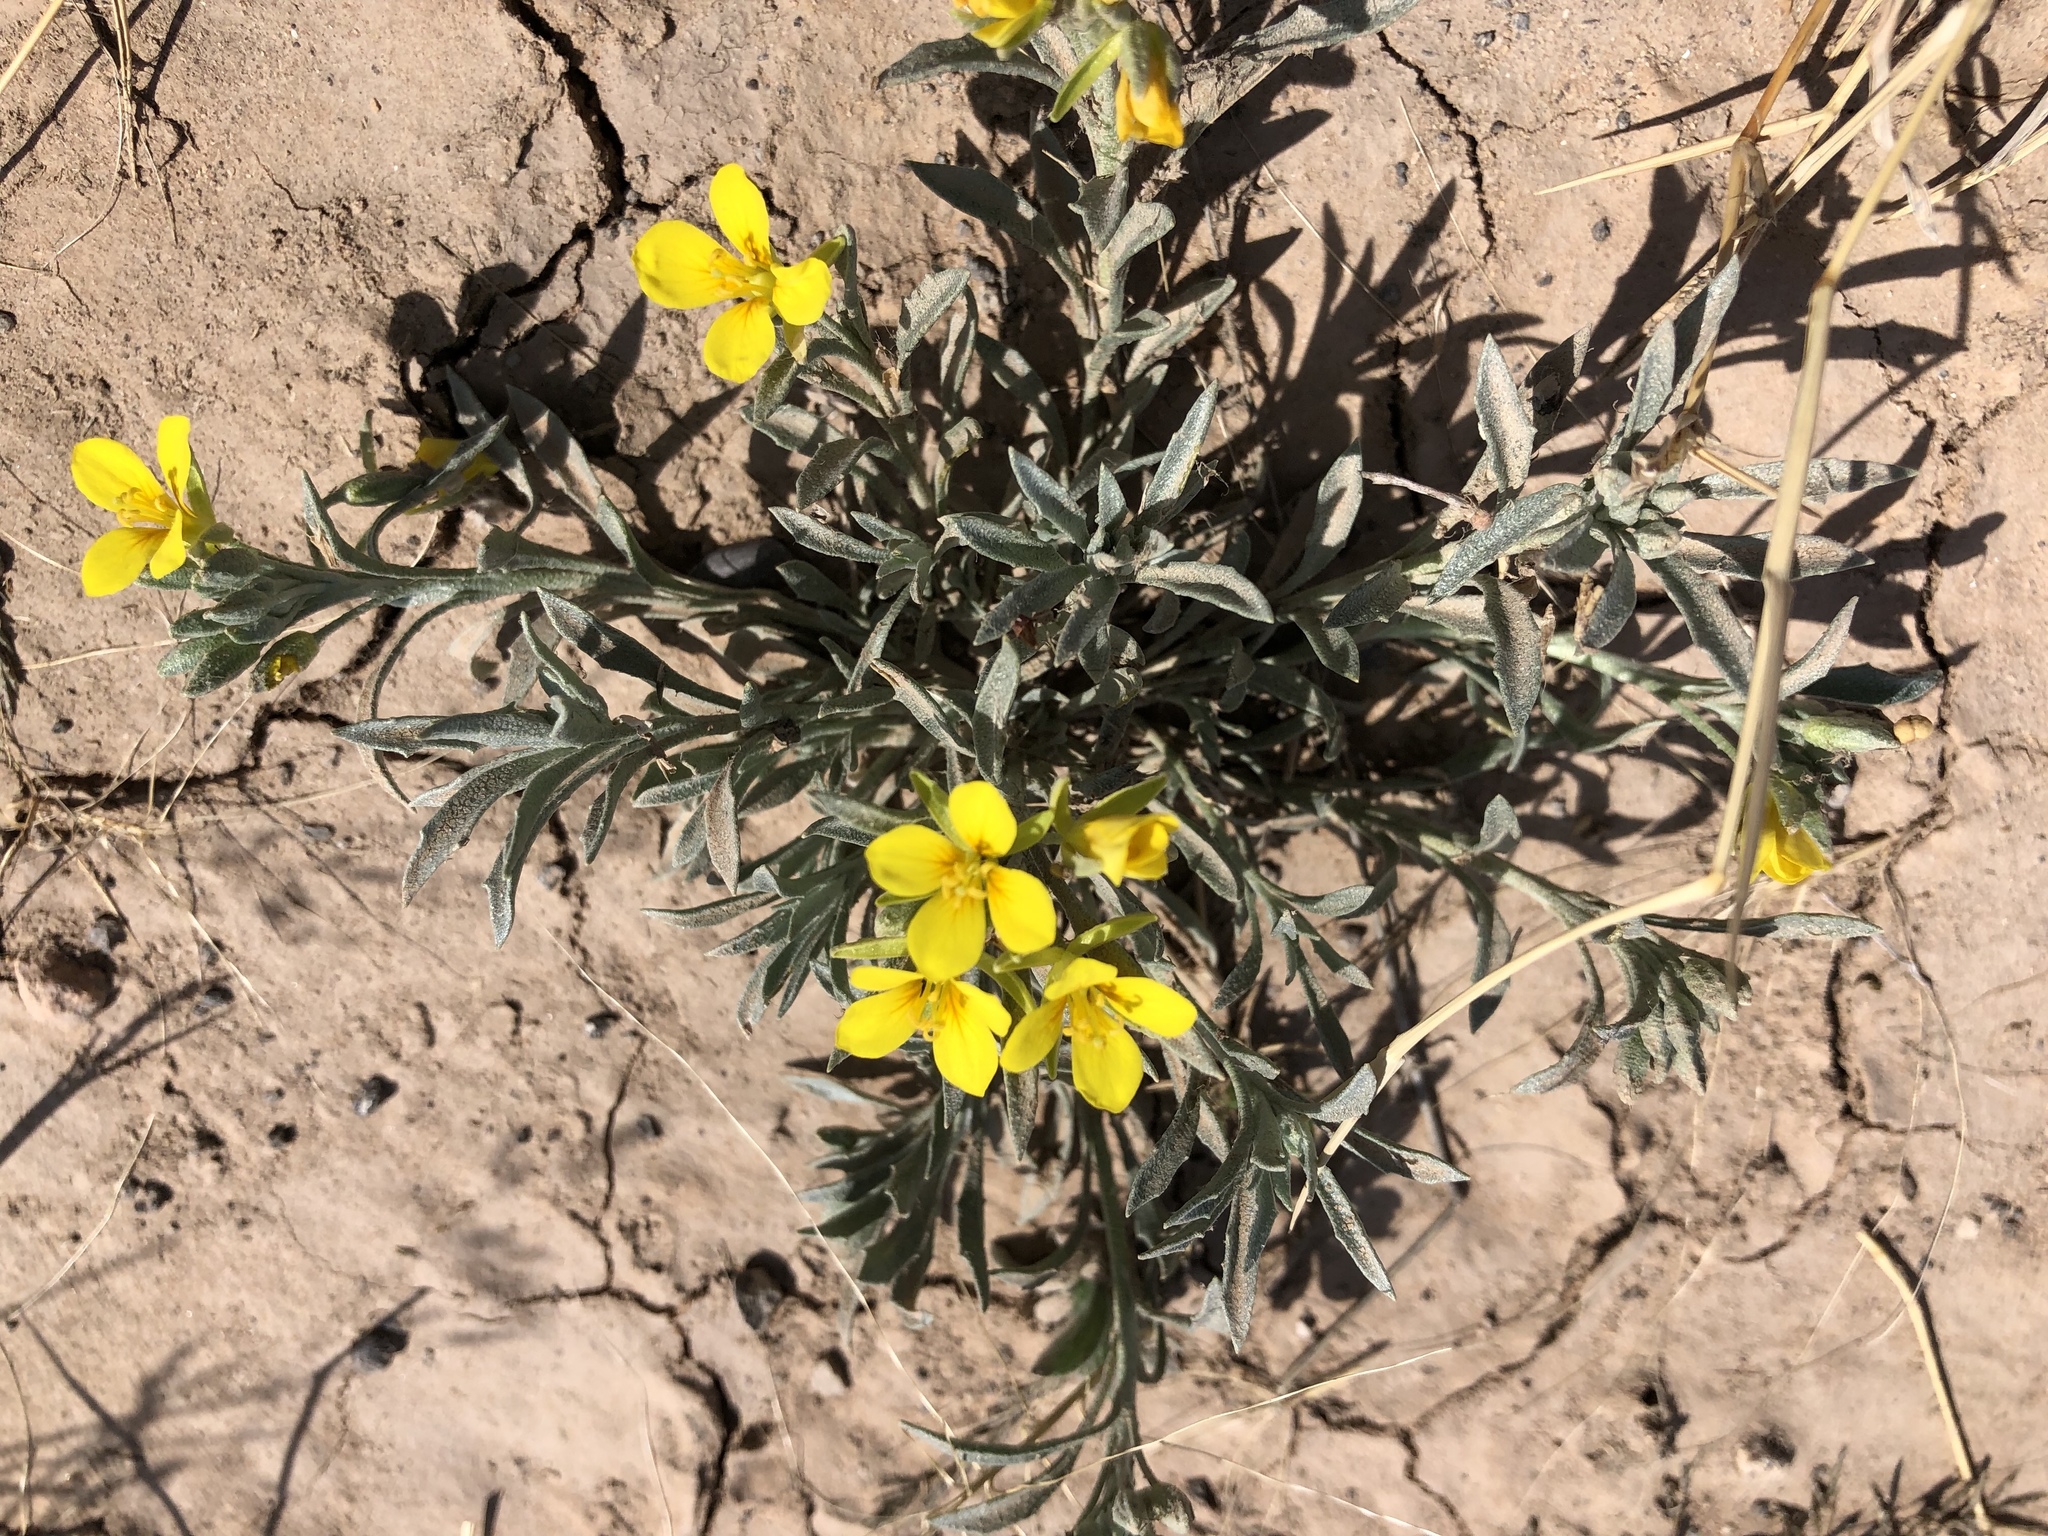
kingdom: Plantae
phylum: Tracheophyta
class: Magnoliopsida
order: Brassicales
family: Brassicaceae
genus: Physaria
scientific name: Physaria fendleri
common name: Fendler's bladderpod
